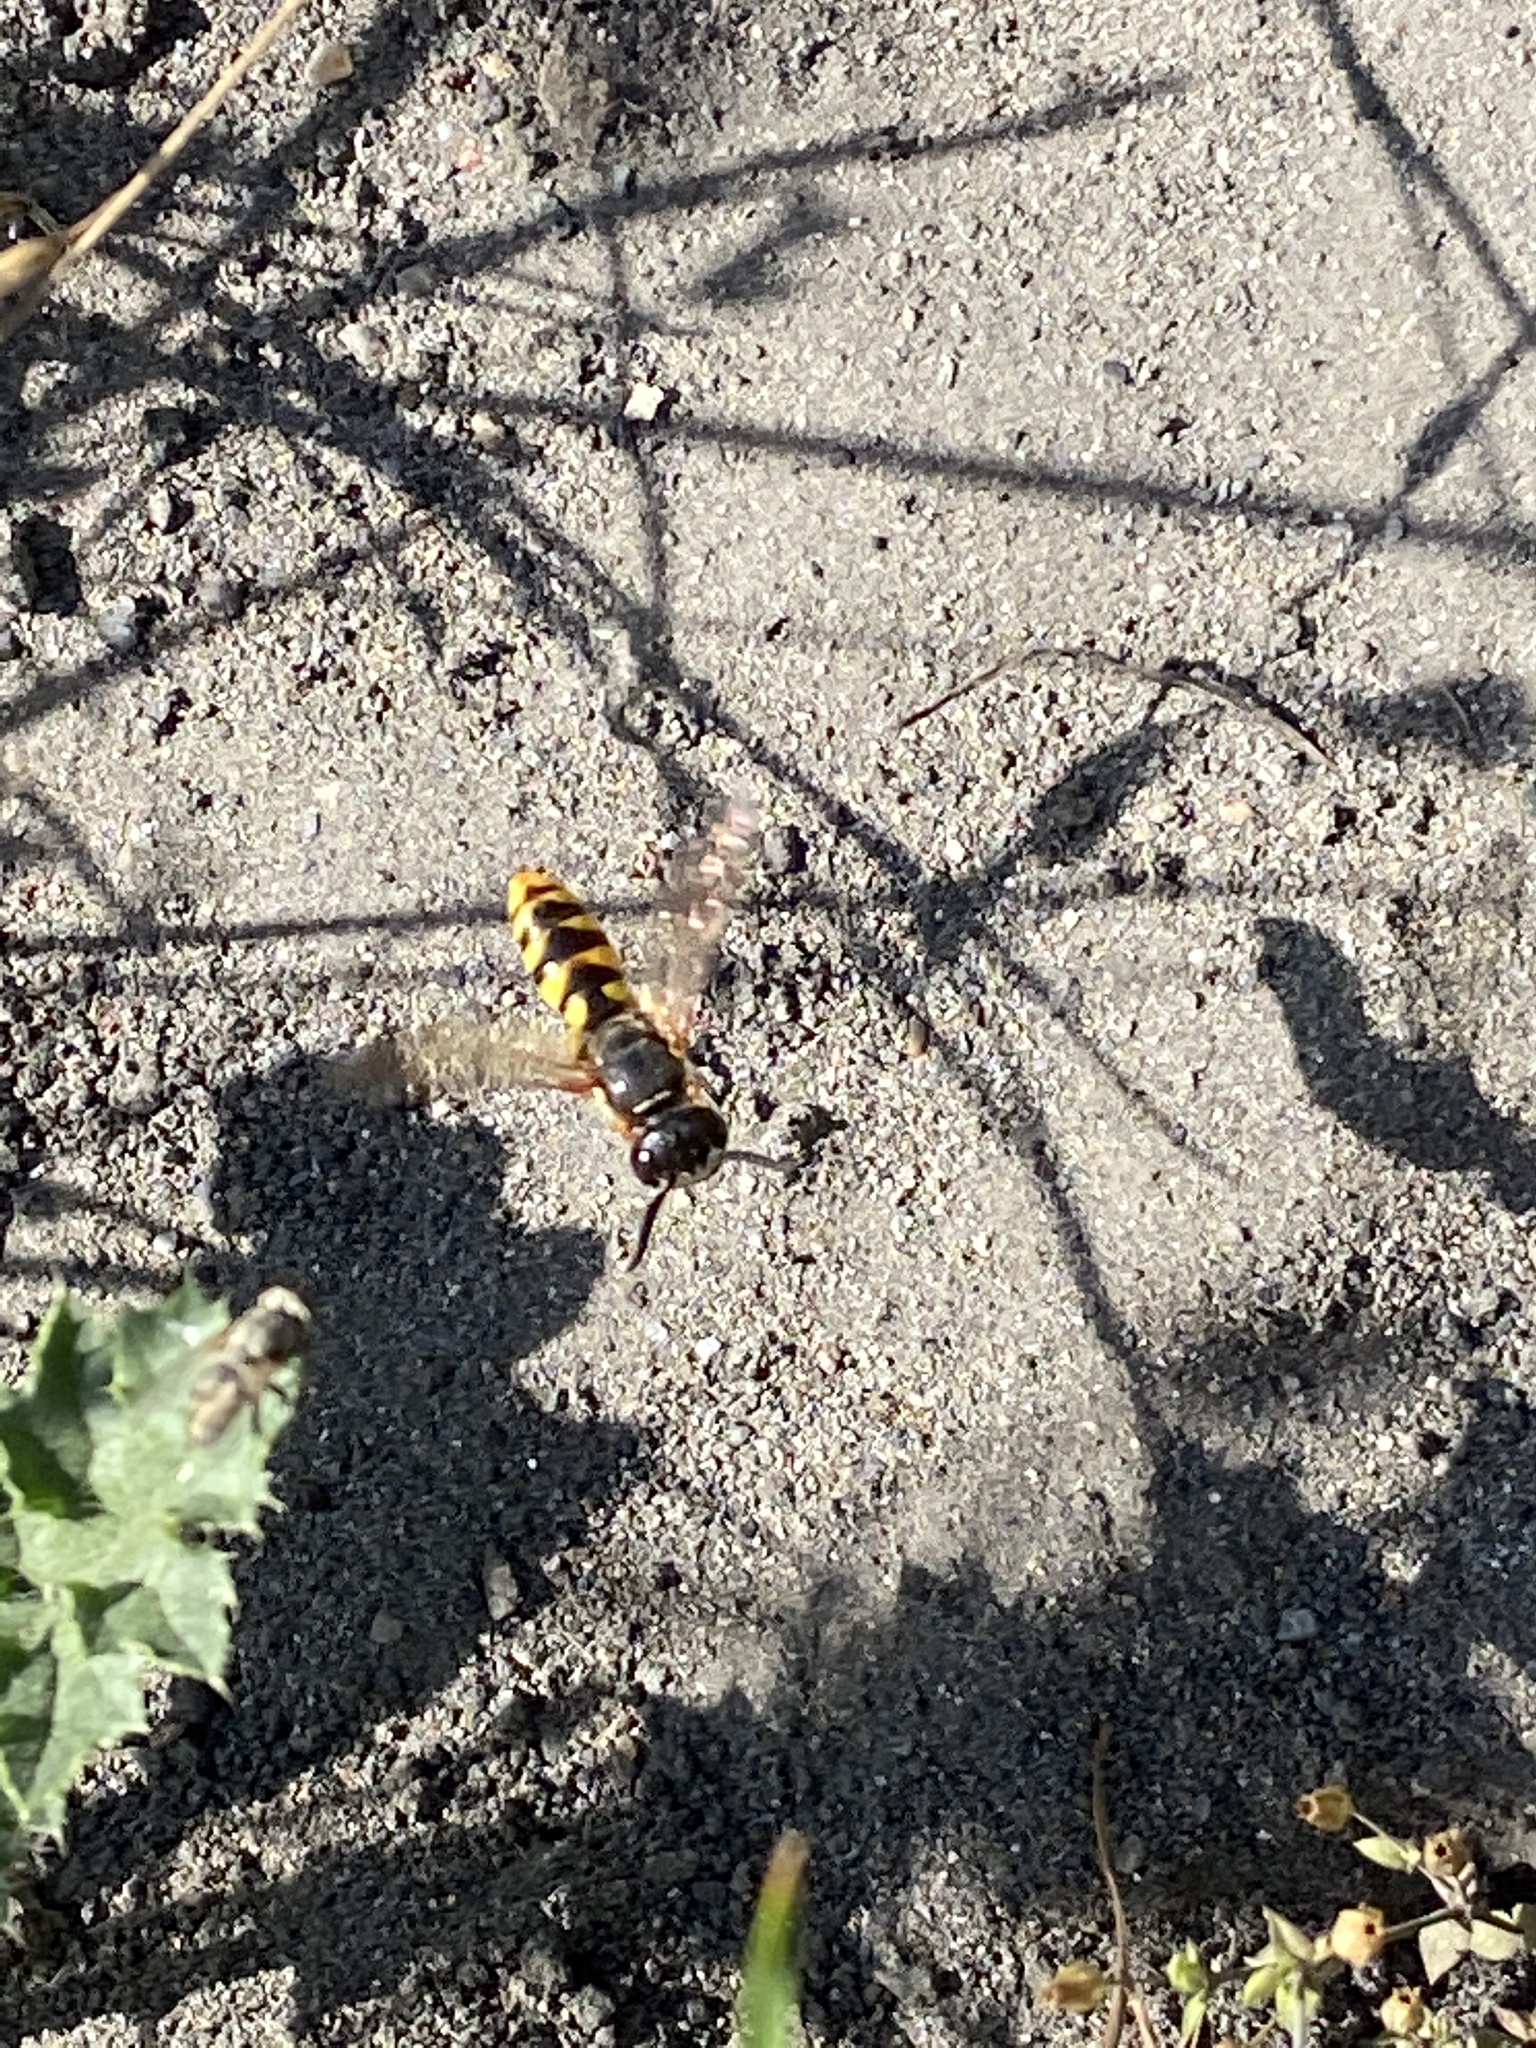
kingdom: Animalia
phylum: Arthropoda
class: Insecta
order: Hymenoptera
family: Crabronidae
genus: Philanthus
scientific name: Philanthus triangulum
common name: Bee wolf
